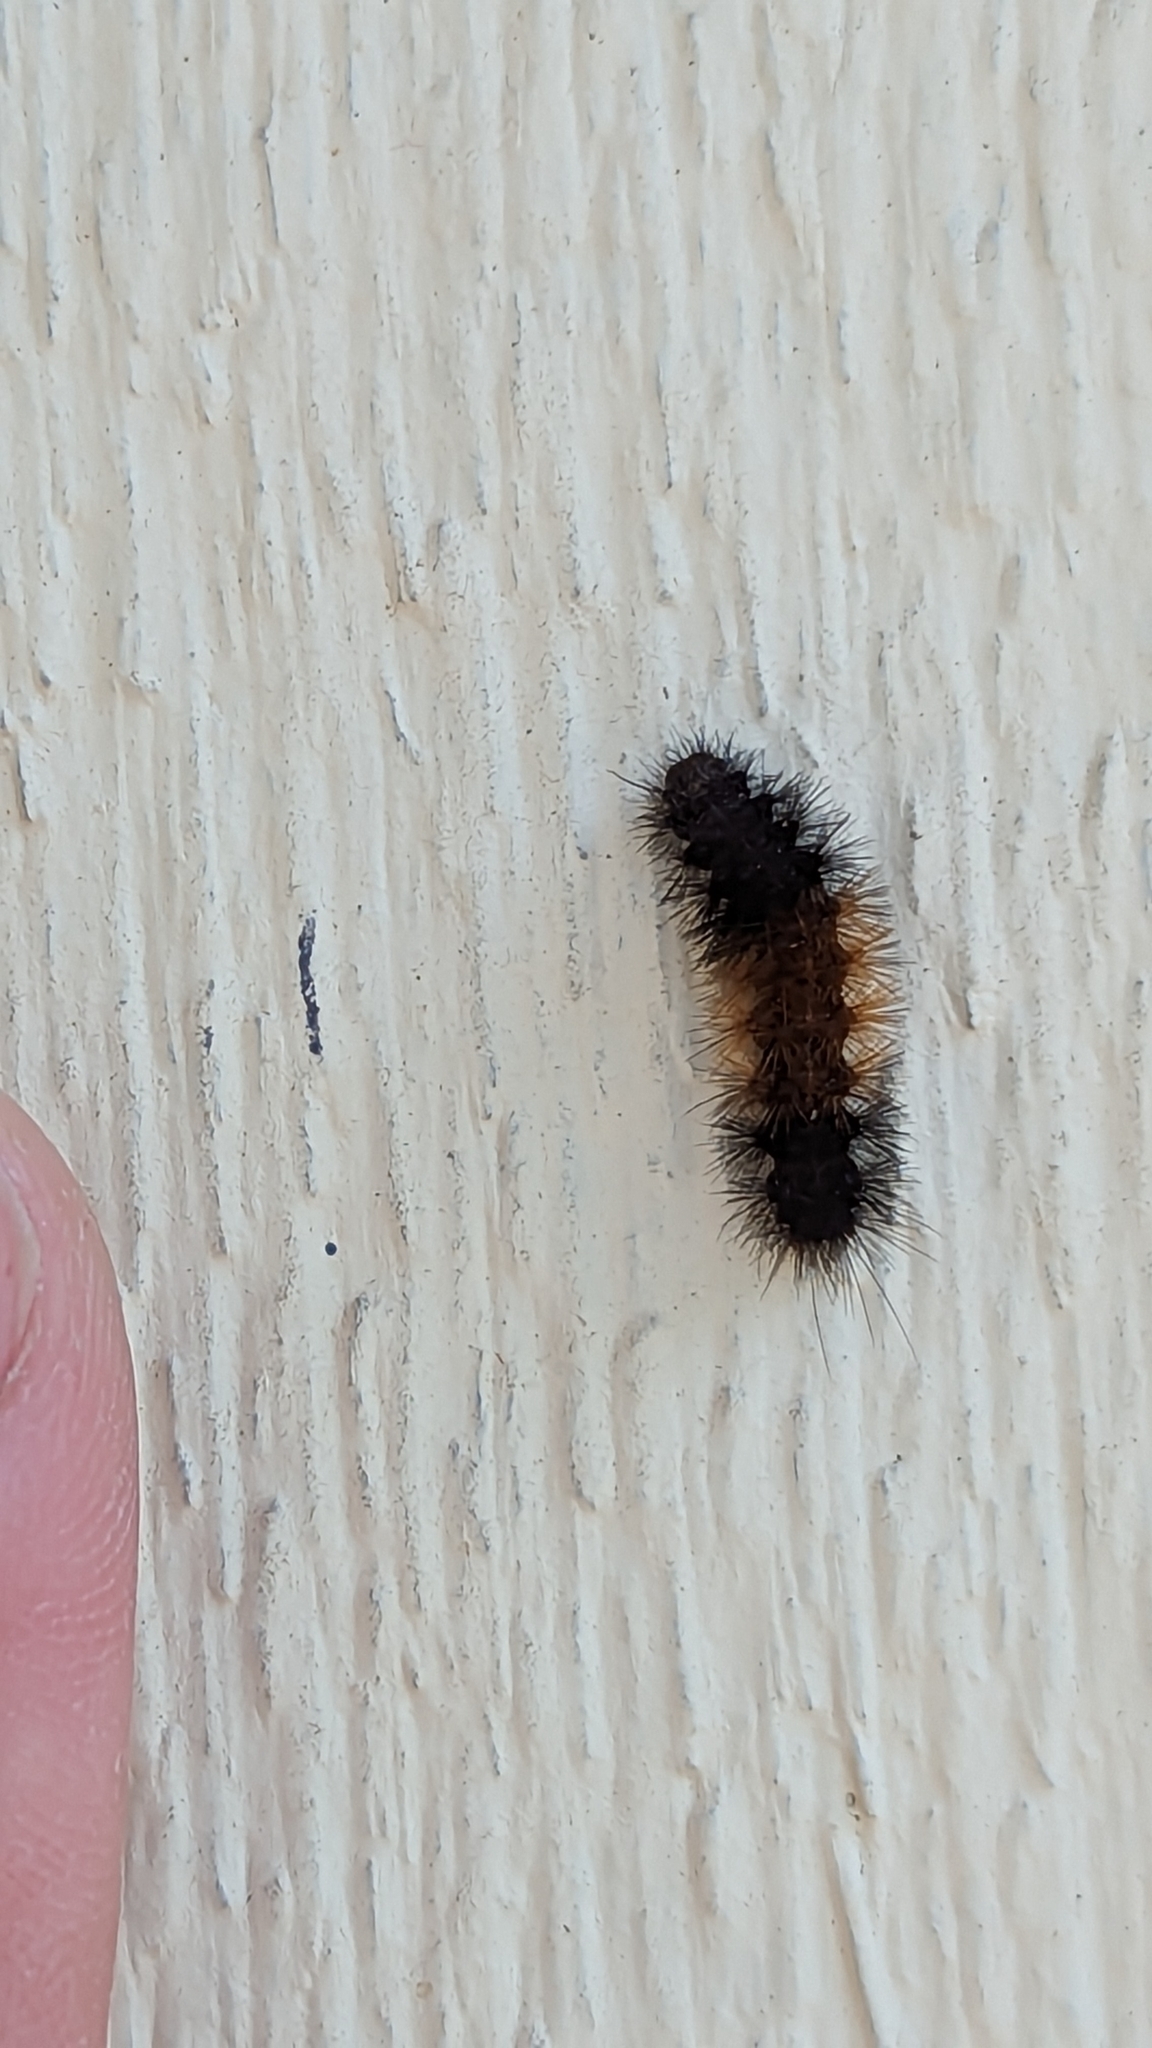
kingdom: Animalia
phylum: Arthropoda
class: Insecta
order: Lepidoptera
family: Erebidae
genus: Pyrrharctia
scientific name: Pyrrharctia isabella
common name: Isabella tiger moth
